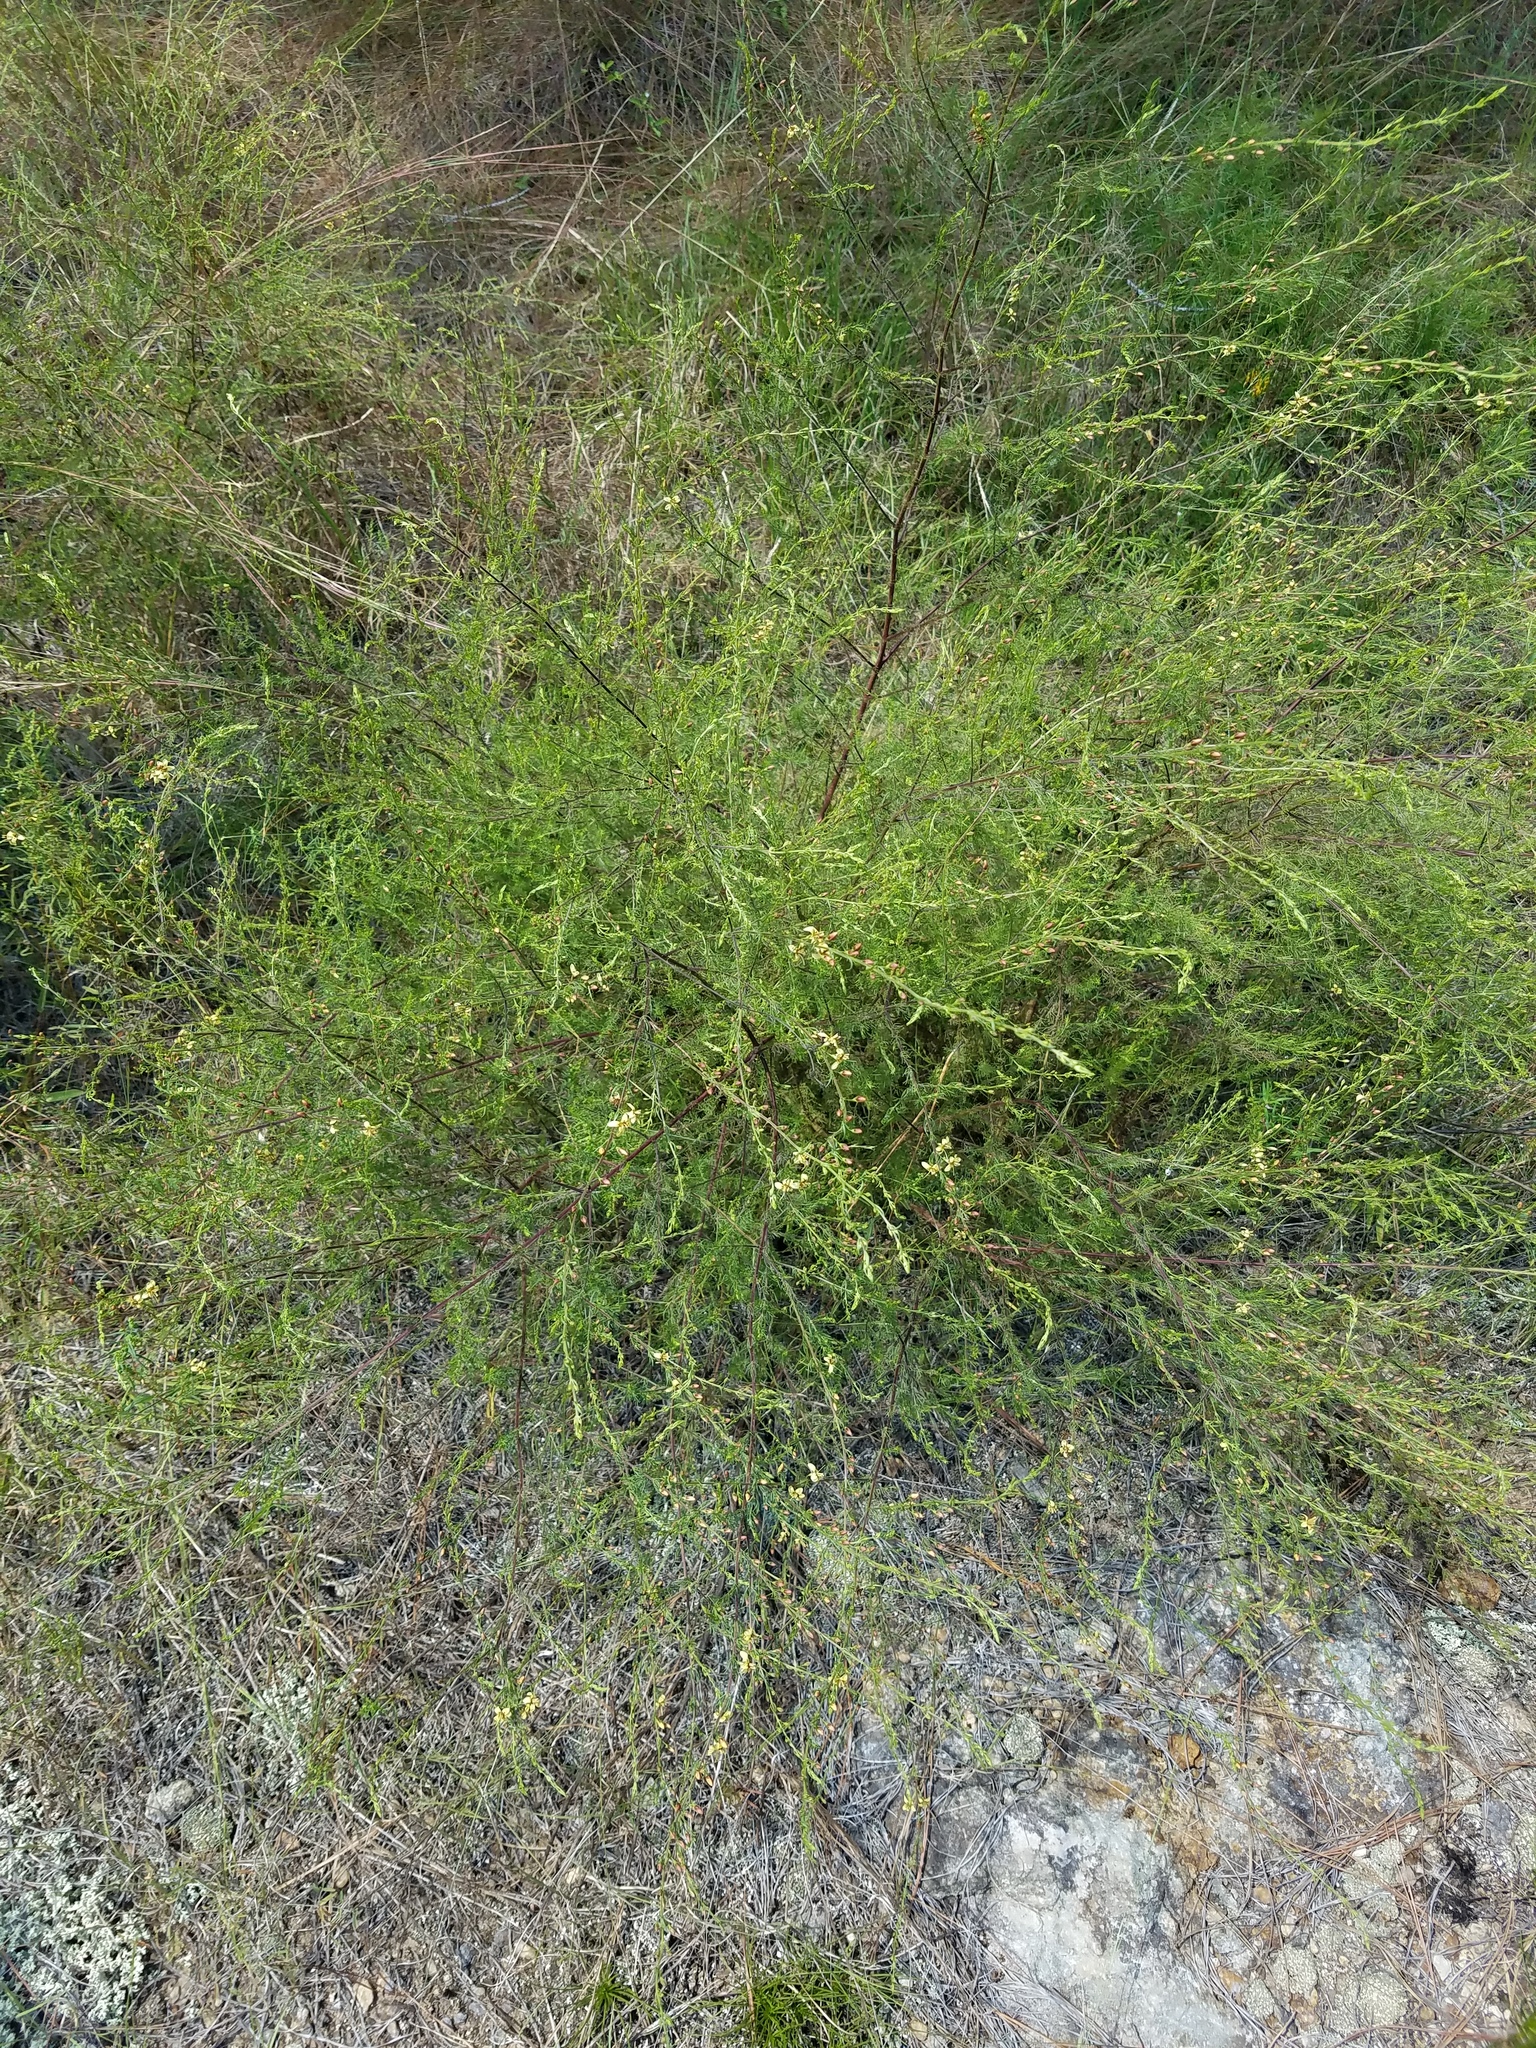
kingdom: Plantae
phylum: Tracheophyta
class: Magnoliopsida
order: Lamiales
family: Orobanchaceae
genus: Seymeria
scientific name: Seymeria cassioides
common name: Yaupon black-senna
